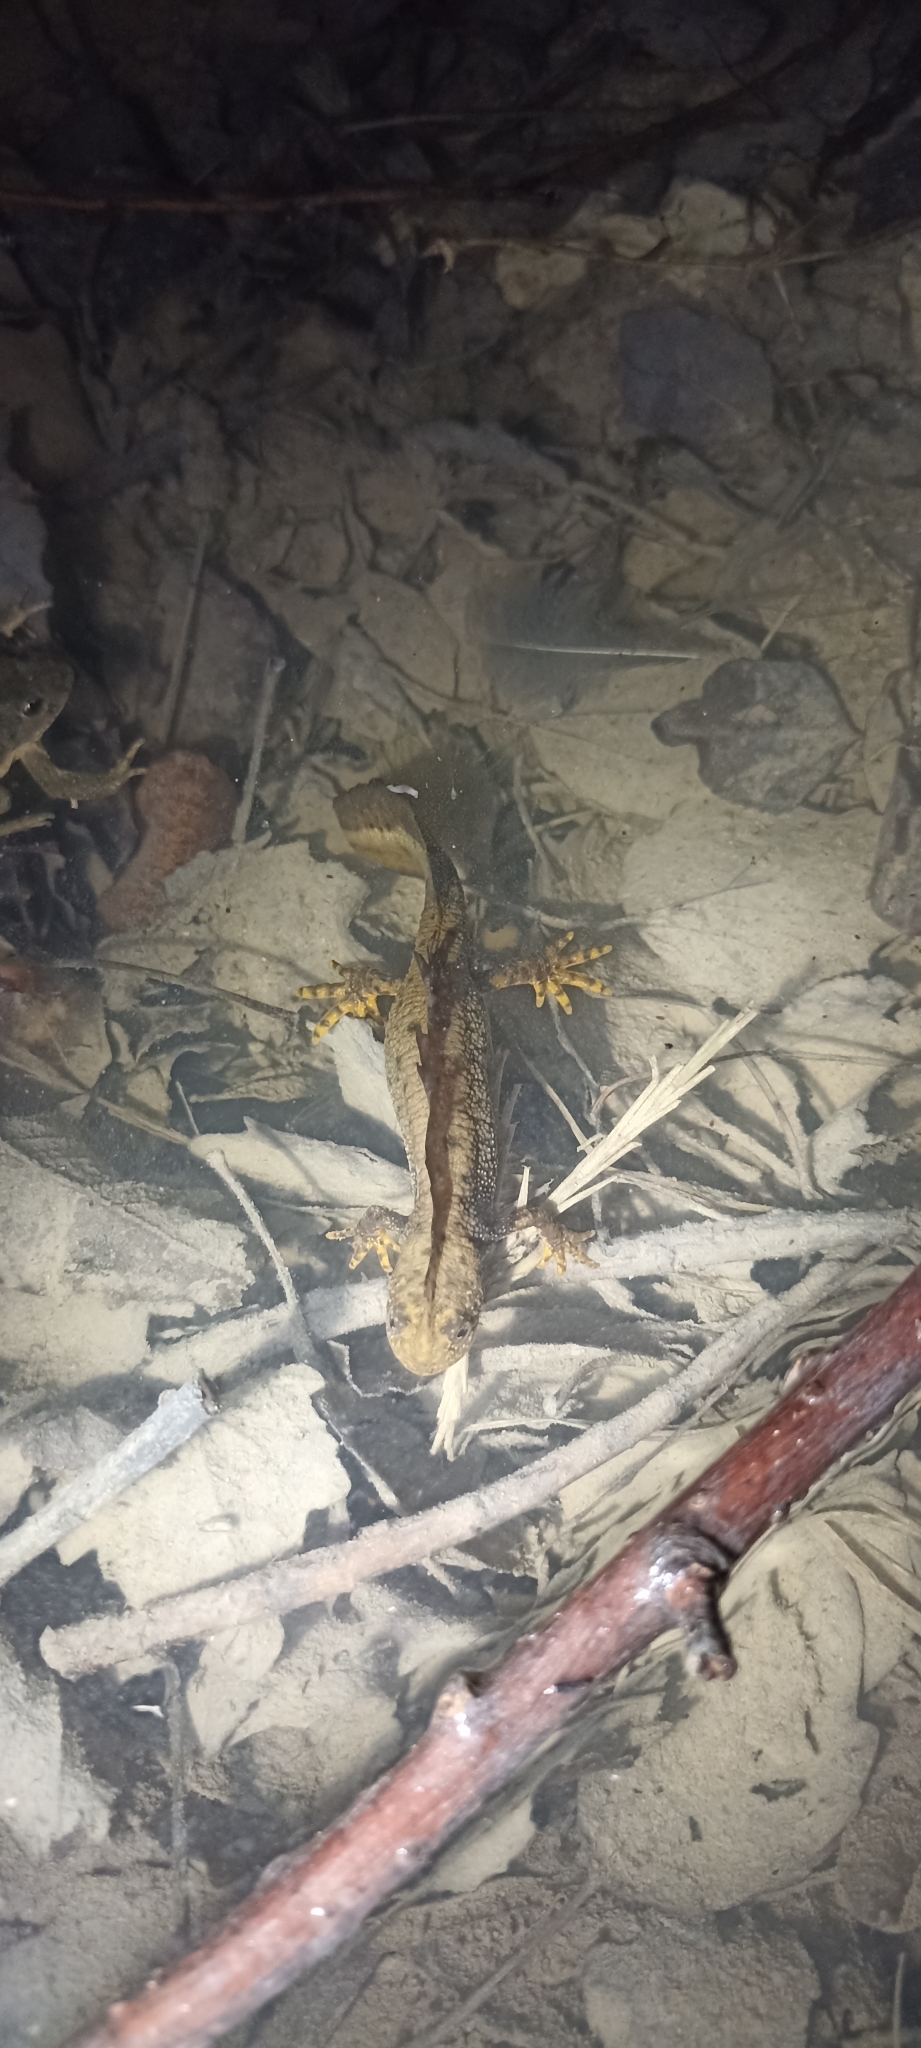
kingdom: Animalia
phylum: Chordata
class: Amphibia
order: Caudata
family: Salamandridae
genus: Triturus
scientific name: Triturus cristatus
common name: Crested newt
